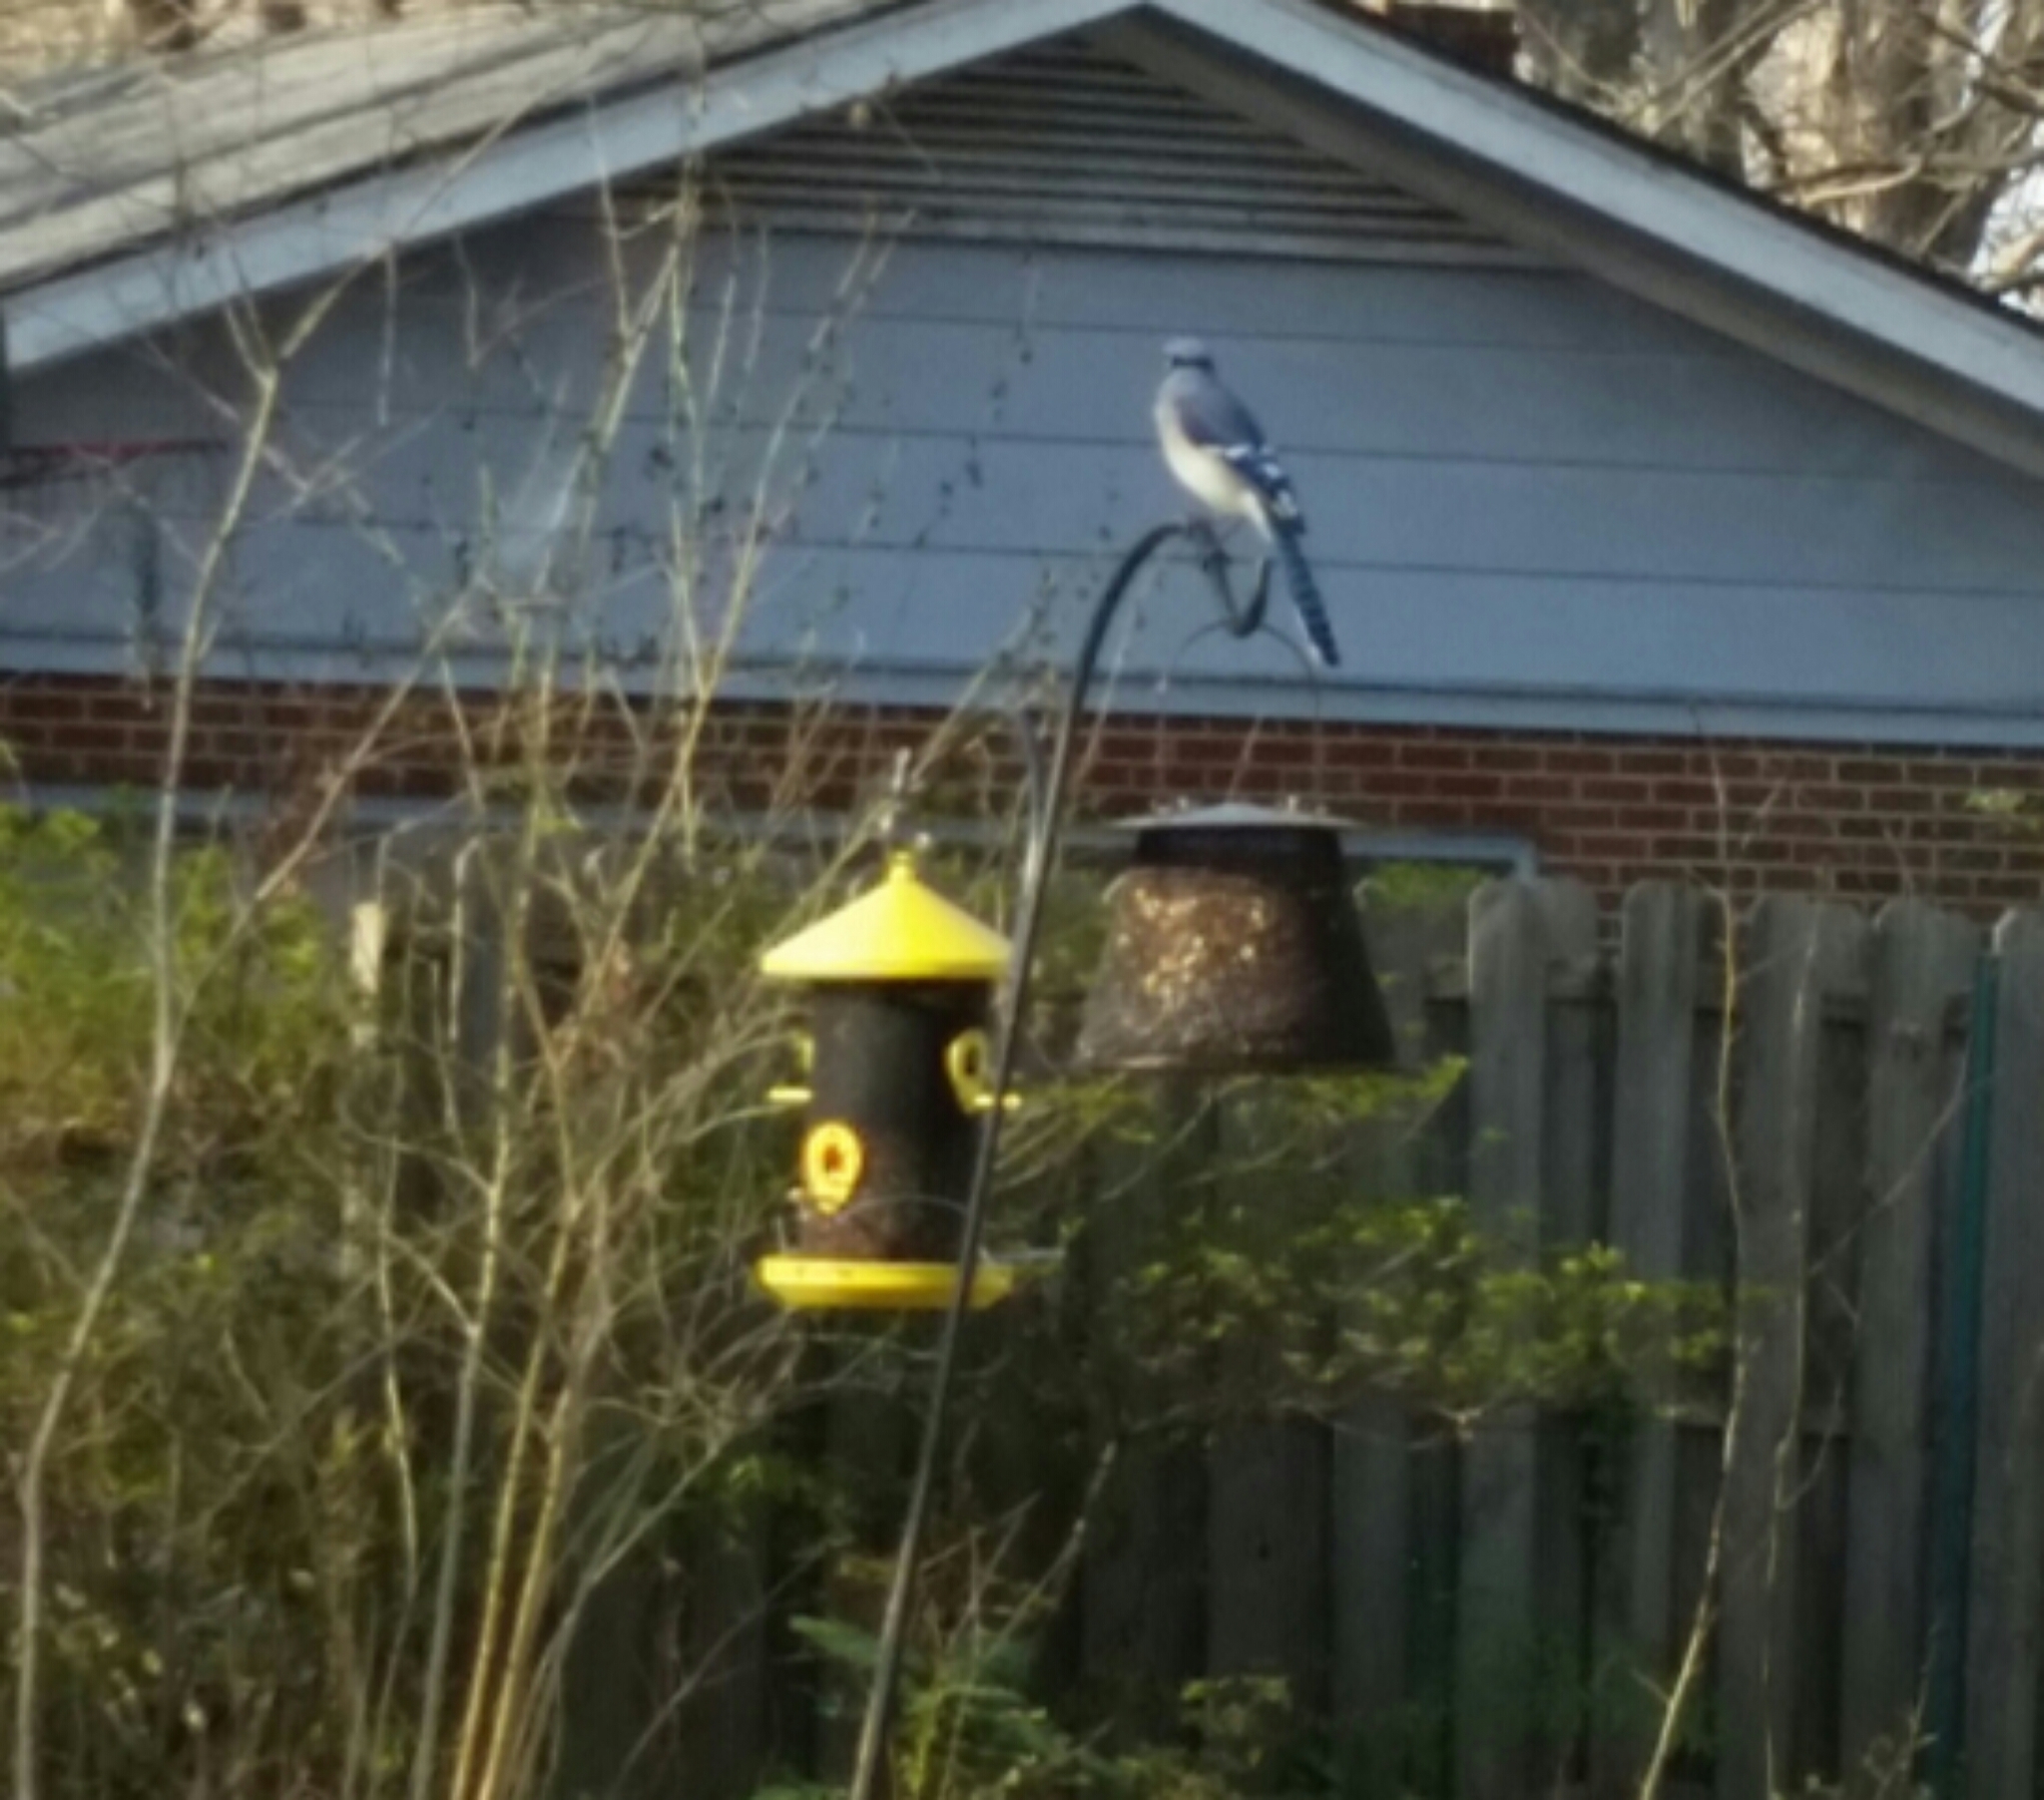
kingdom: Animalia
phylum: Chordata
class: Aves
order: Passeriformes
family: Corvidae
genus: Cyanocitta
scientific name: Cyanocitta cristata
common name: Blue jay
